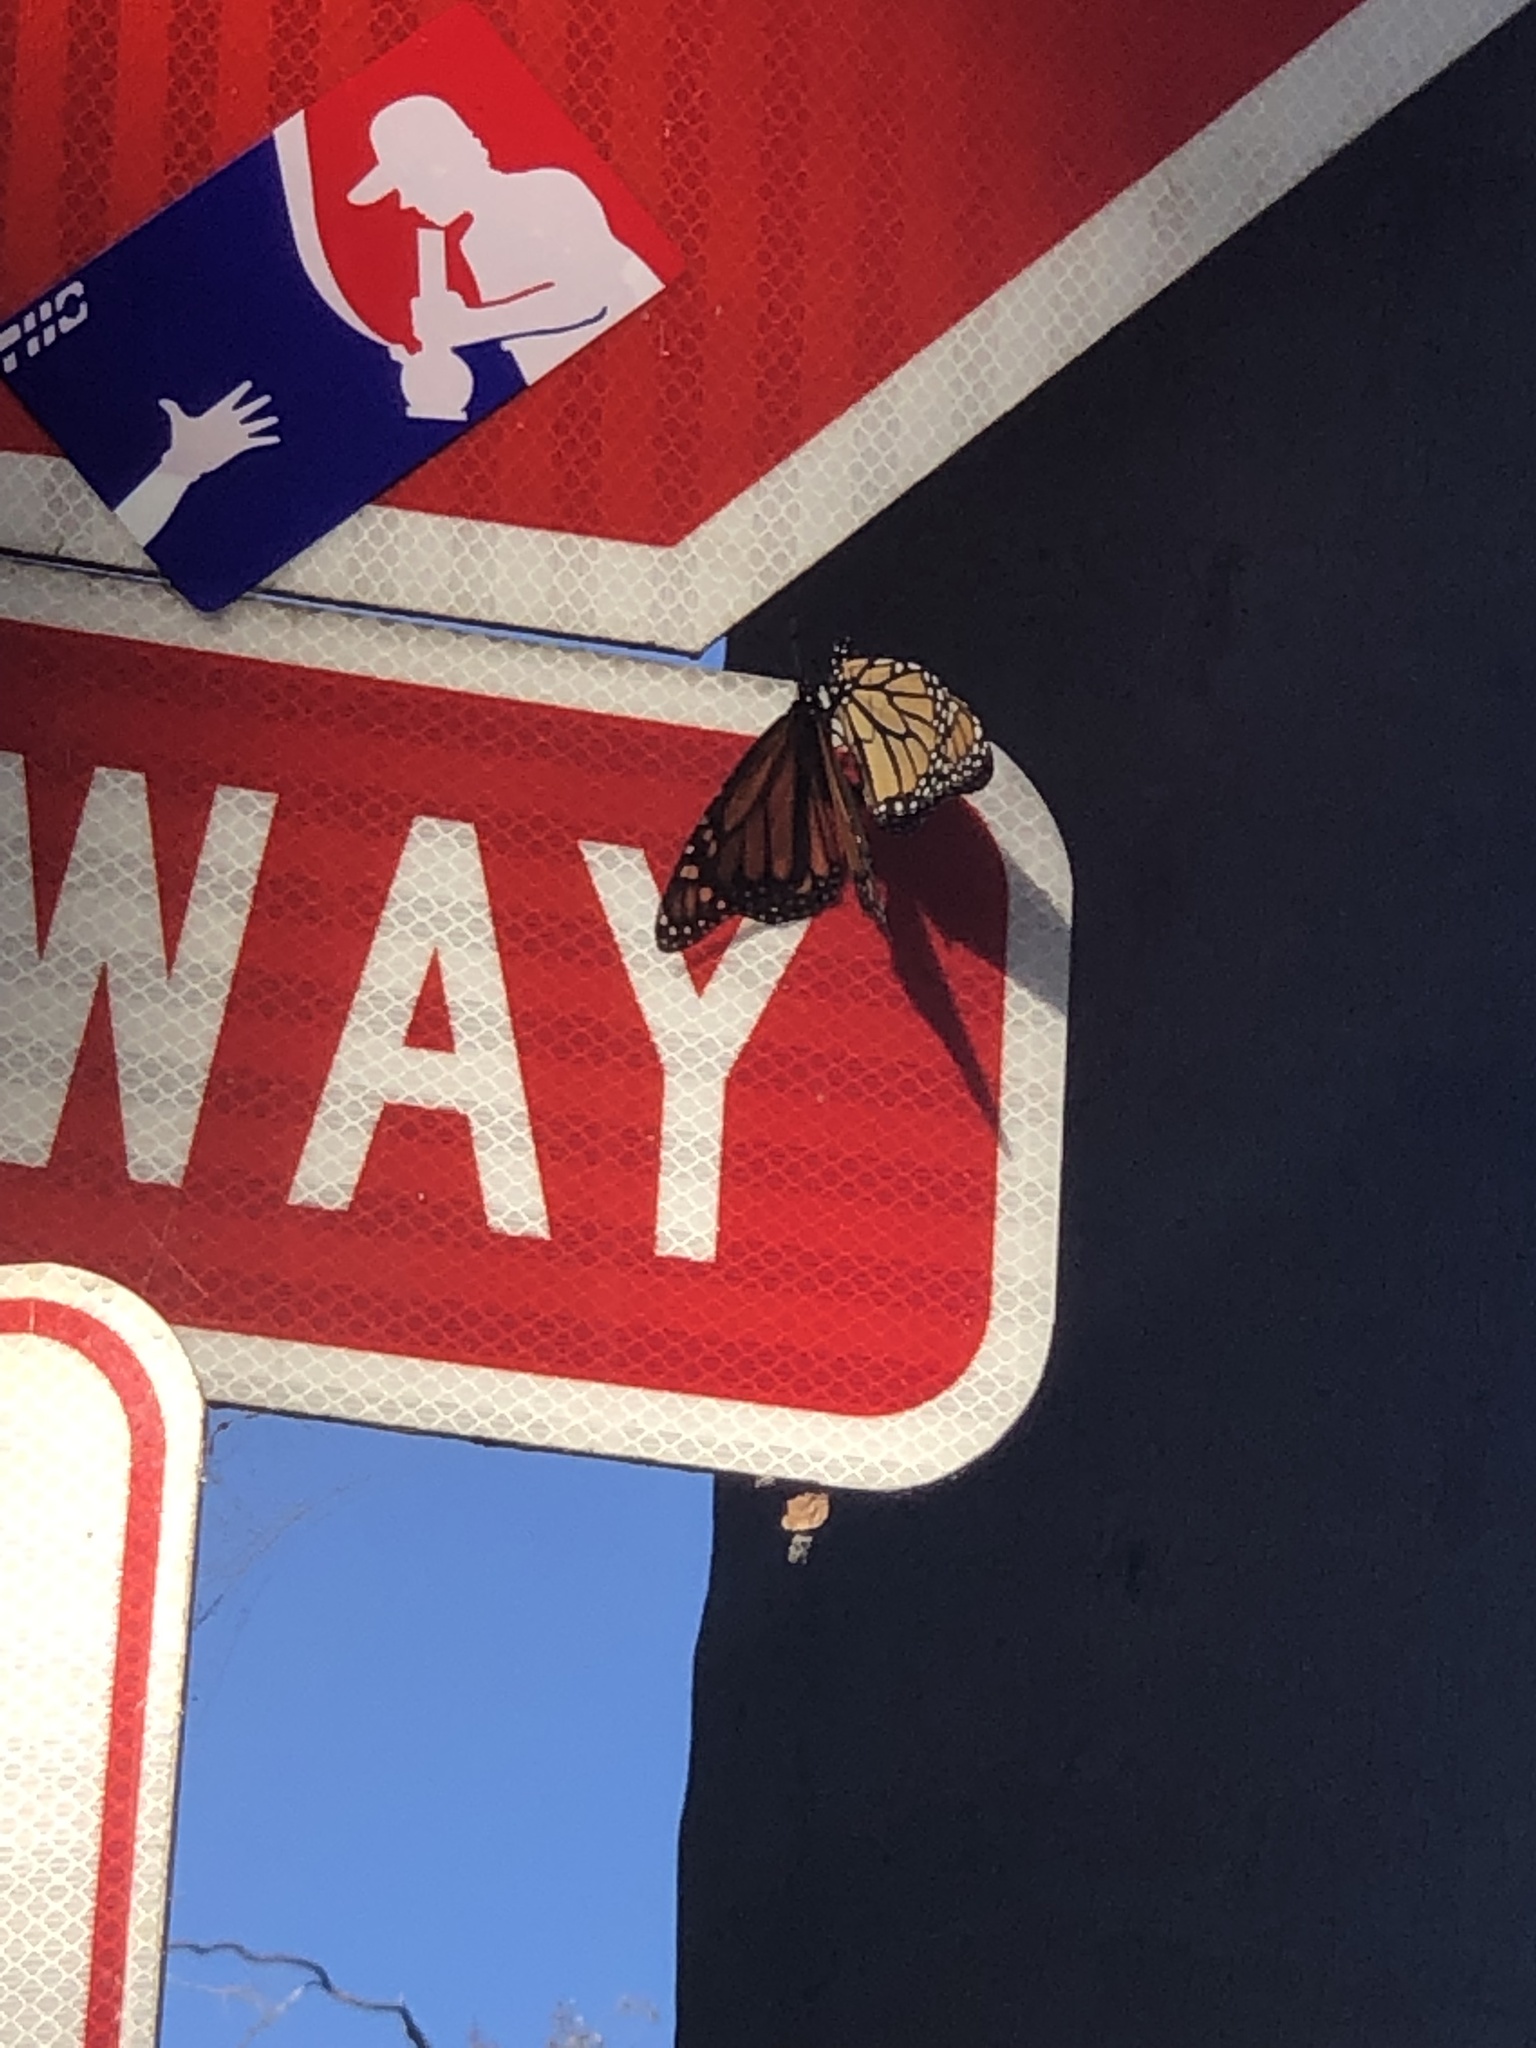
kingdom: Animalia
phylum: Arthropoda
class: Insecta
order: Lepidoptera
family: Nymphalidae
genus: Danaus
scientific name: Danaus plexippus
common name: Monarch
